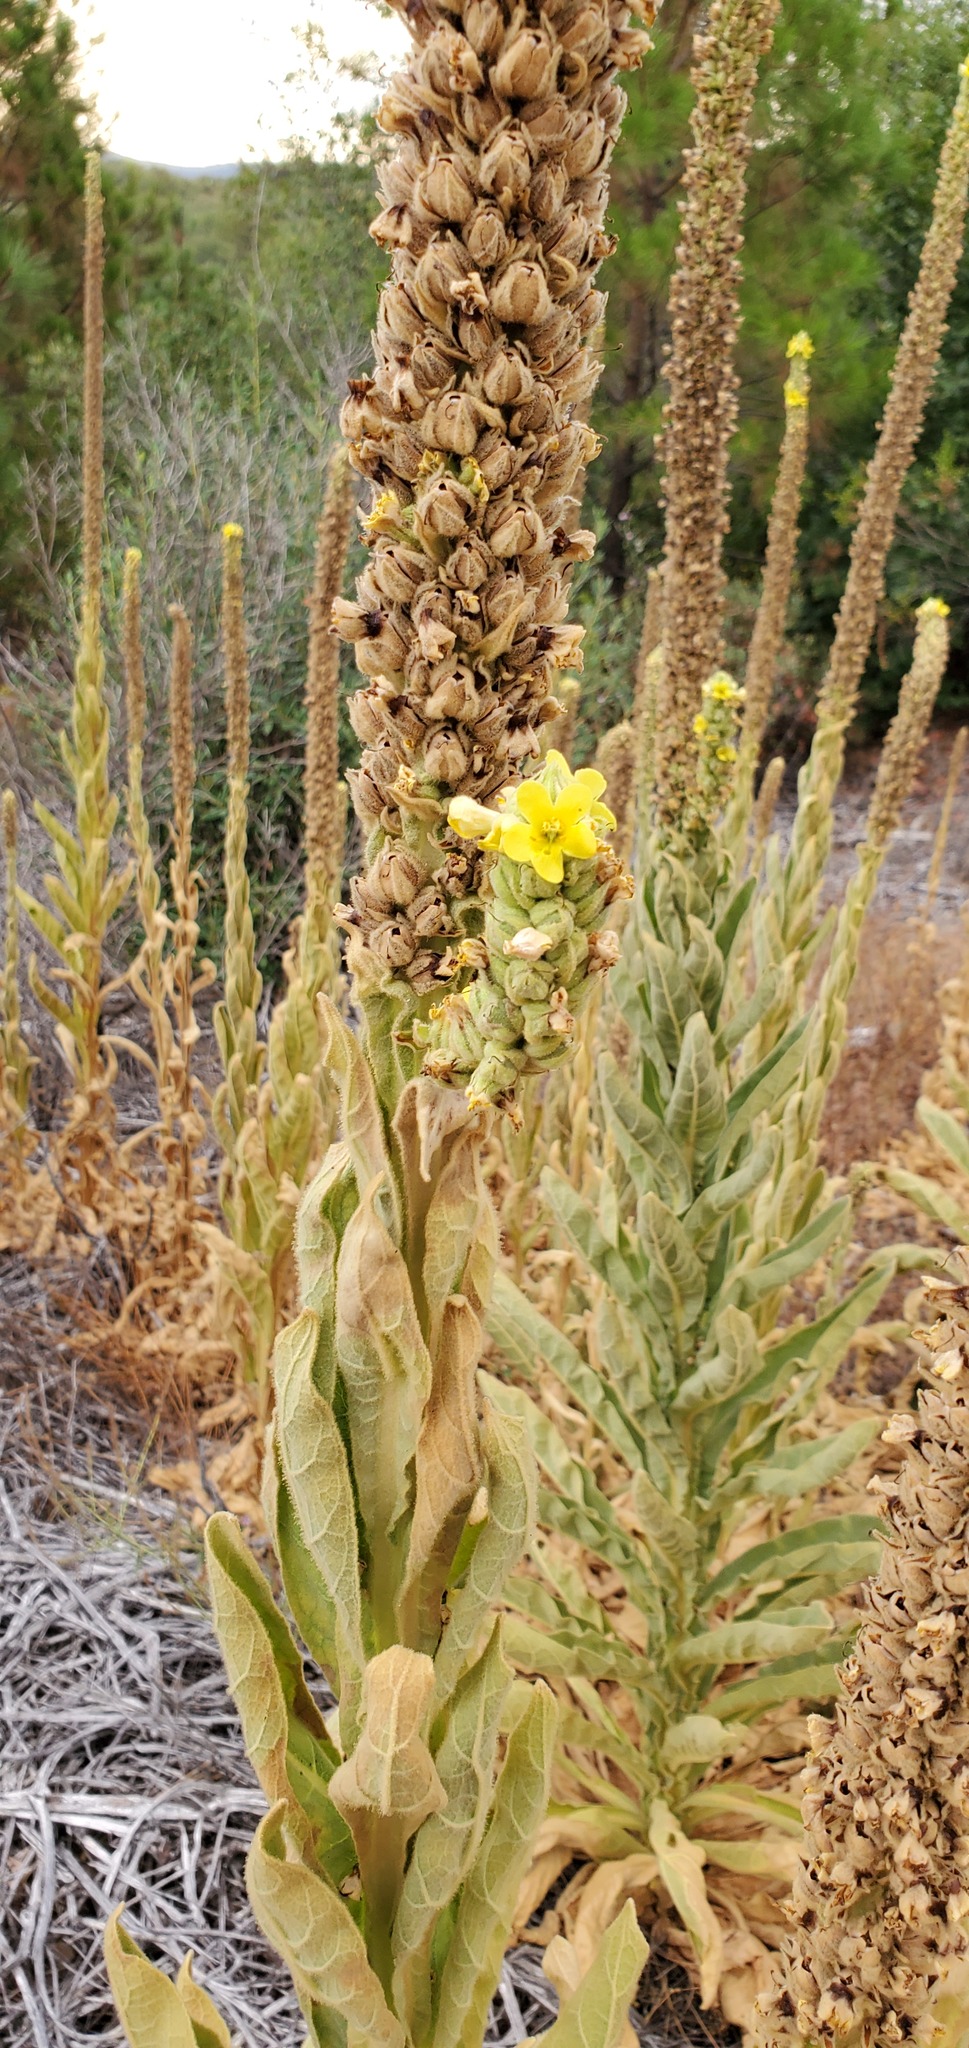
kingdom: Plantae
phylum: Tracheophyta
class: Magnoliopsida
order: Lamiales
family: Scrophulariaceae
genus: Verbascum
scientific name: Verbascum thapsus
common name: Common mullein
